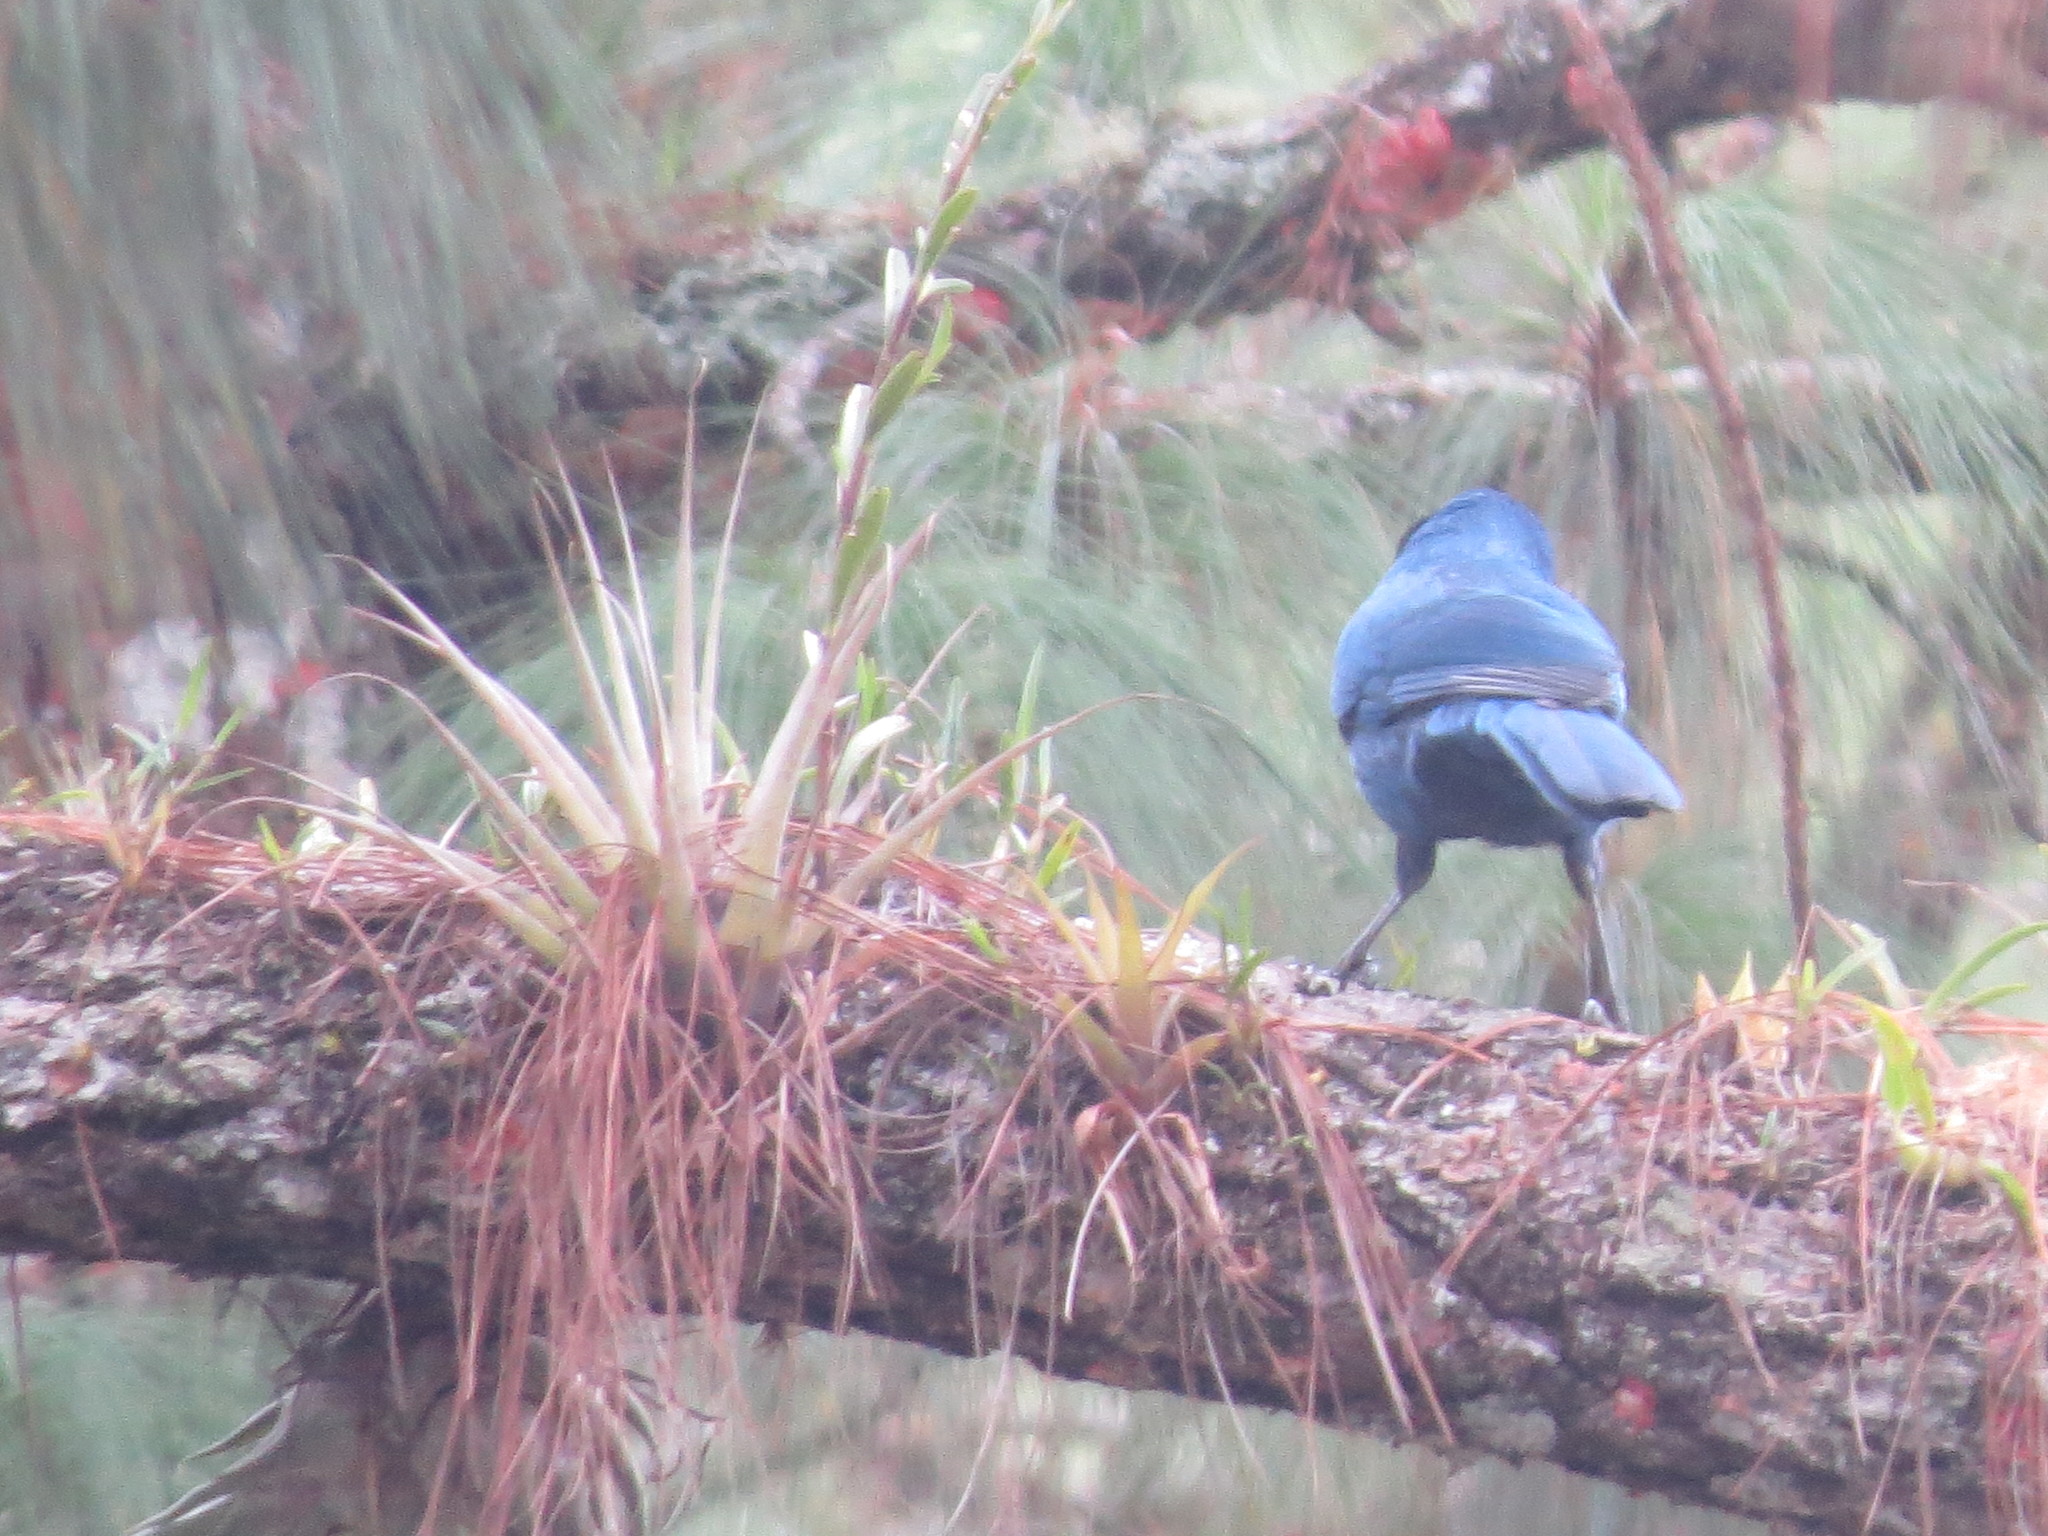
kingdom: Animalia
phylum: Chordata
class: Aves
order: Passeriformes
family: Corvidae
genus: Aphelocoma
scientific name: Aphelocoma unicolor
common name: Unicolored jay
